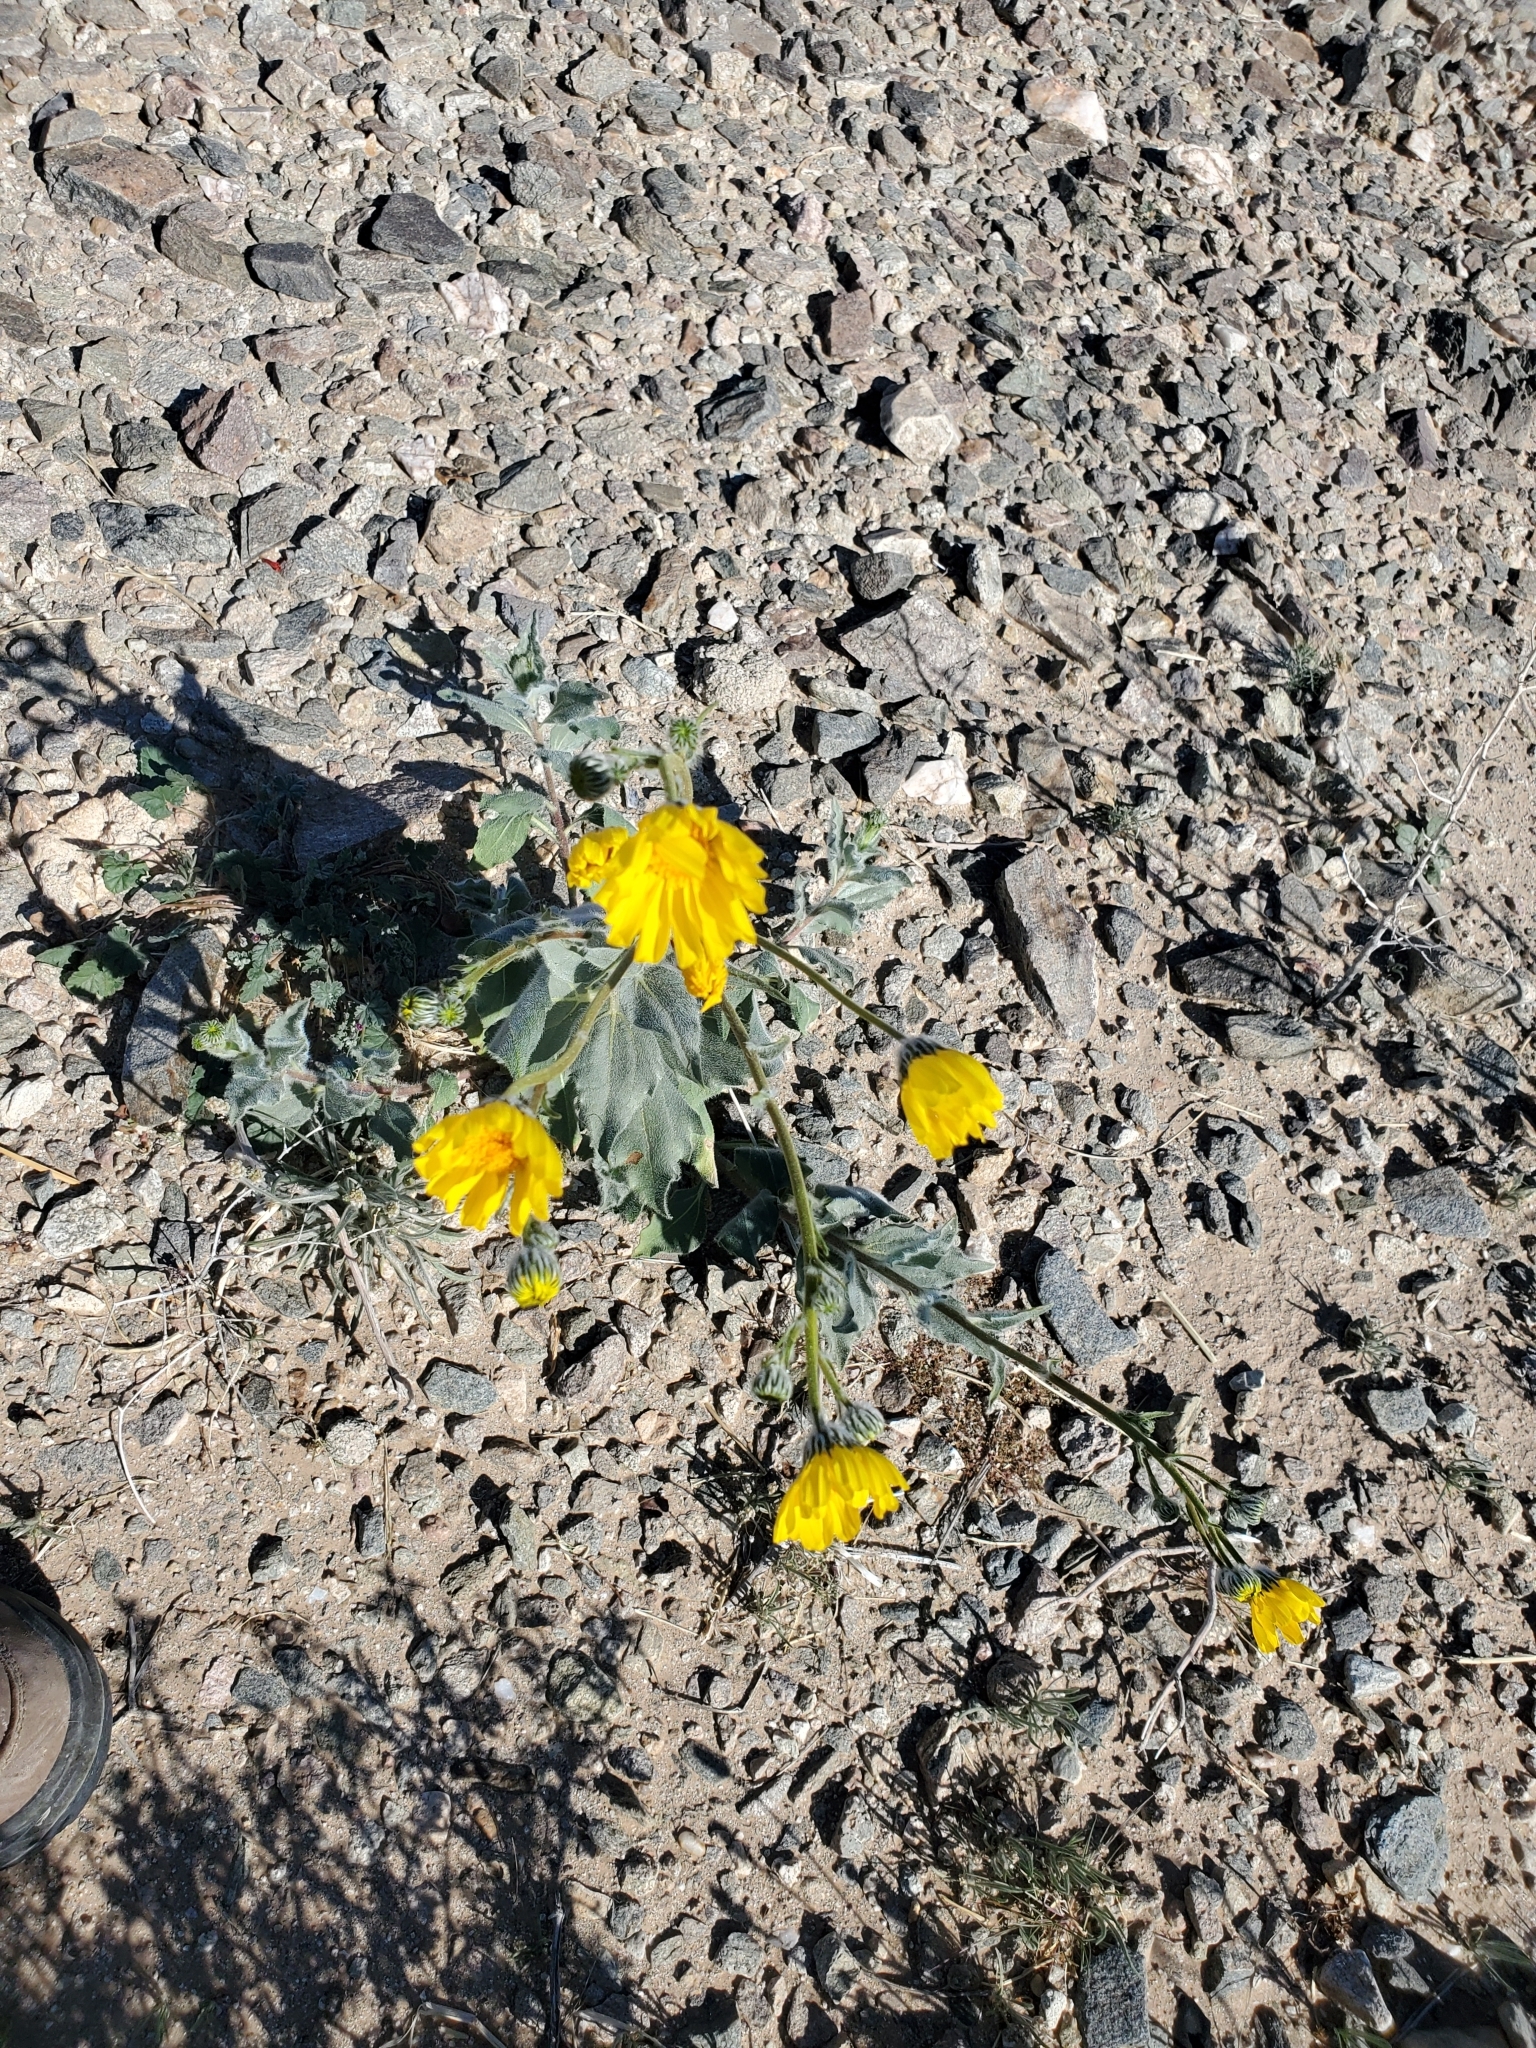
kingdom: Plantae
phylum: Tracheophyta
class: Magnoliopsida
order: Asterales
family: Asteraceae
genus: Geraea
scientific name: Geraea canescens
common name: Desert-gold
